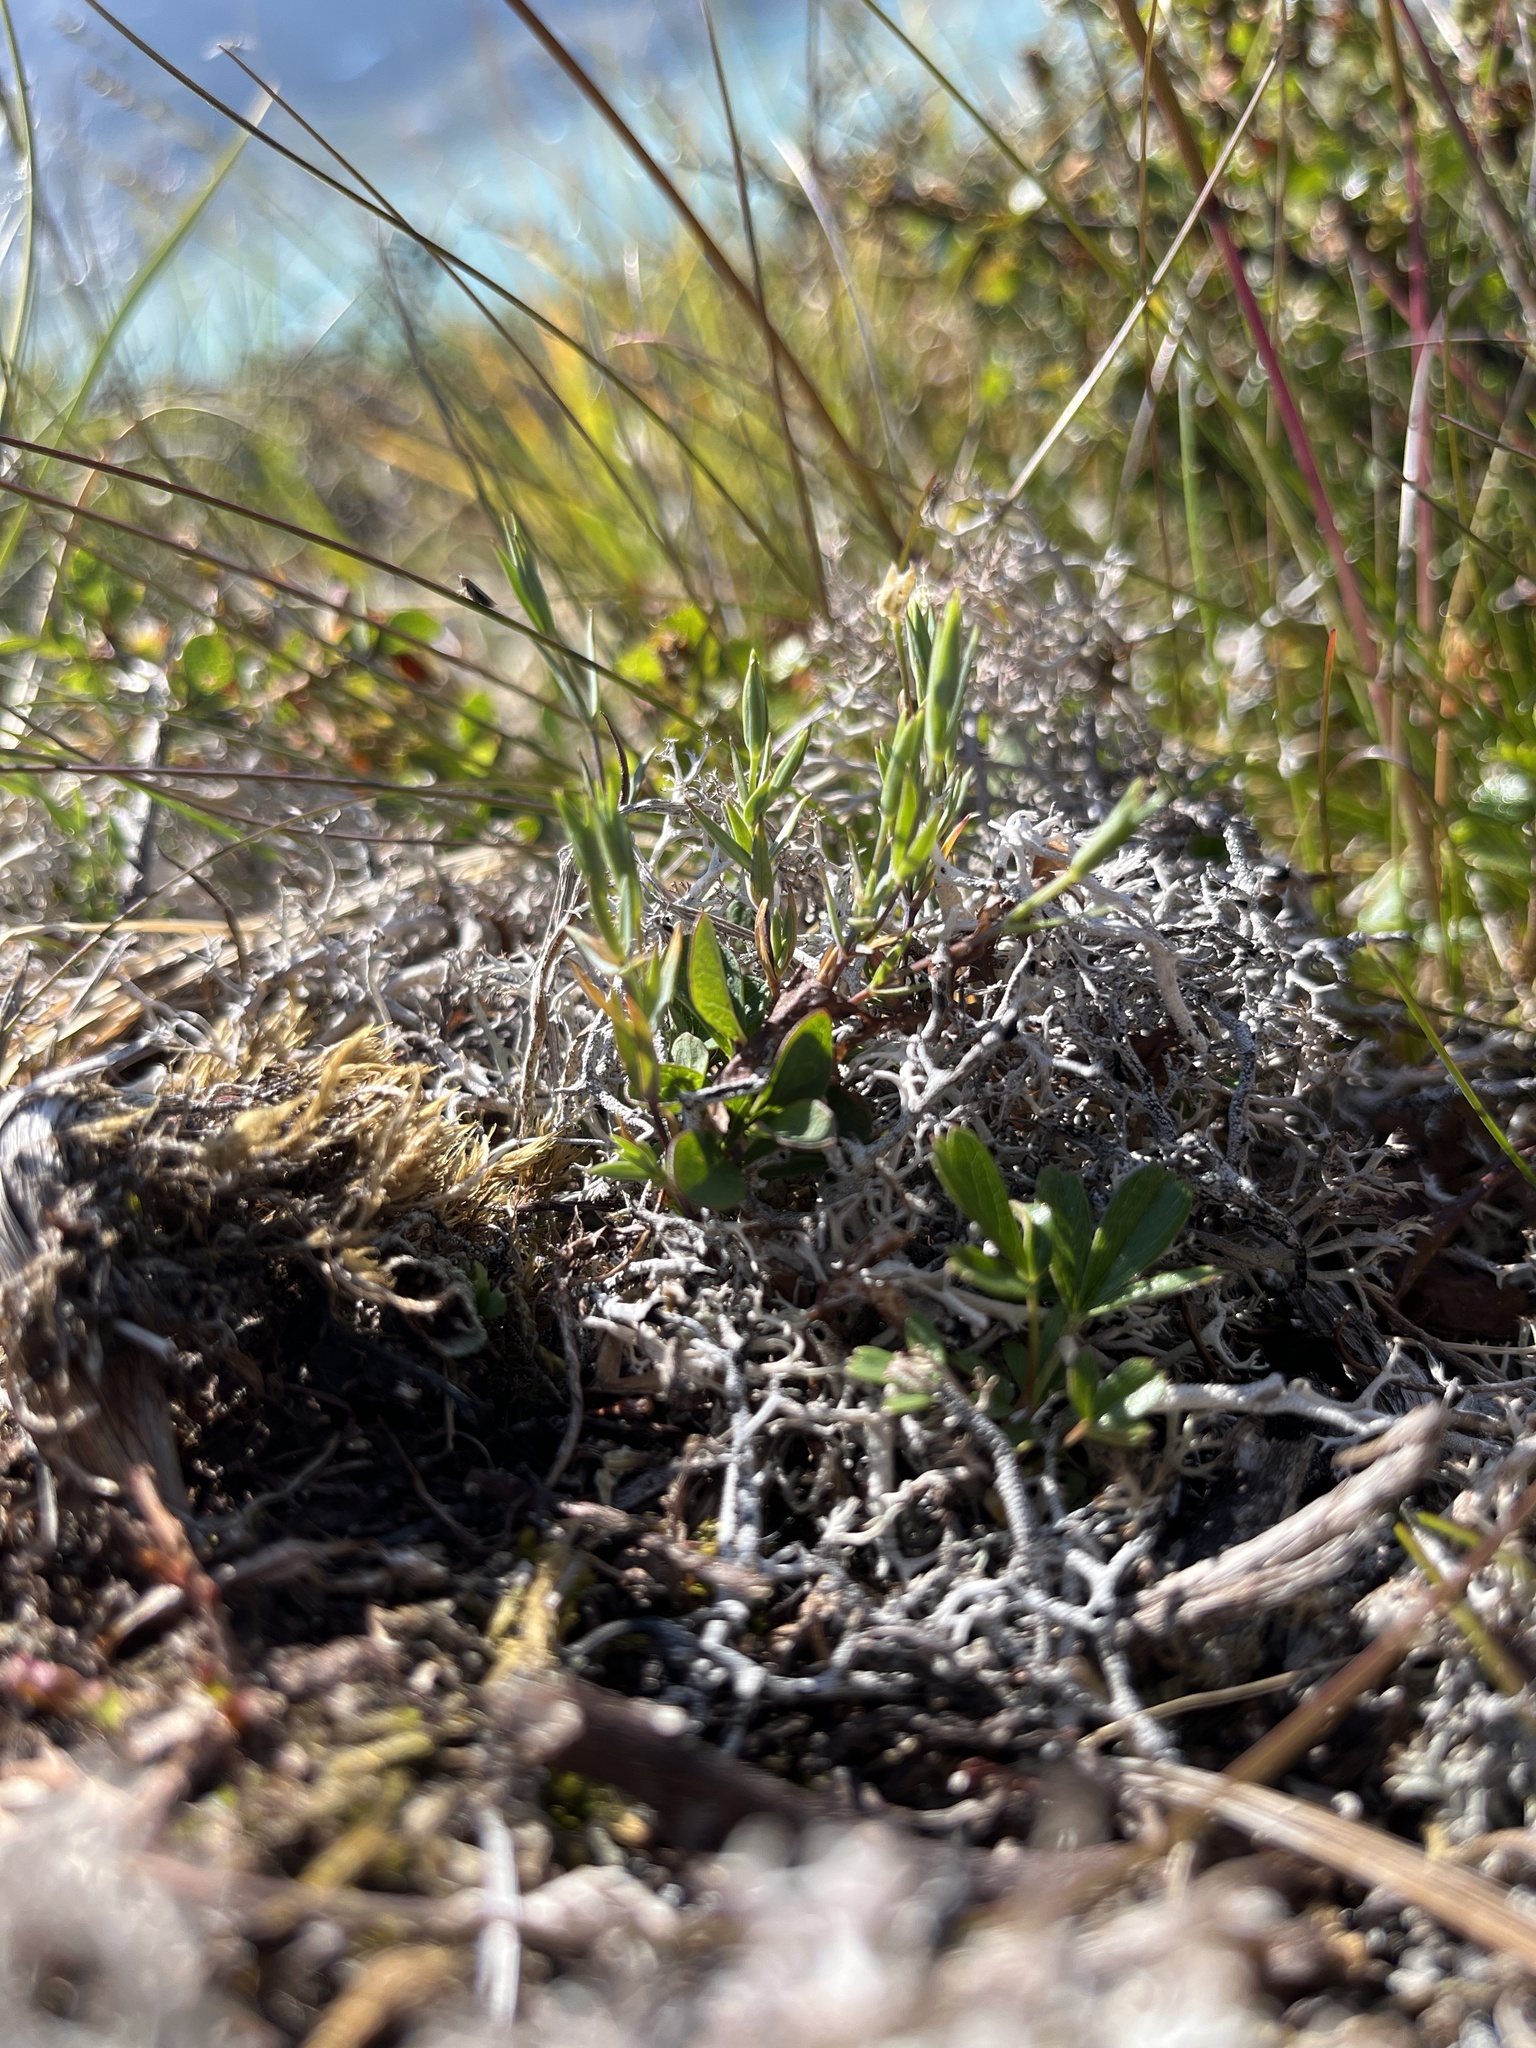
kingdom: Plantae
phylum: Tracheophyta
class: Magnoliopsida
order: Caryophyllales
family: Caryophyllaceae
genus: Stellaria
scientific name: Stellaria longipes
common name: Goldie's starwort
